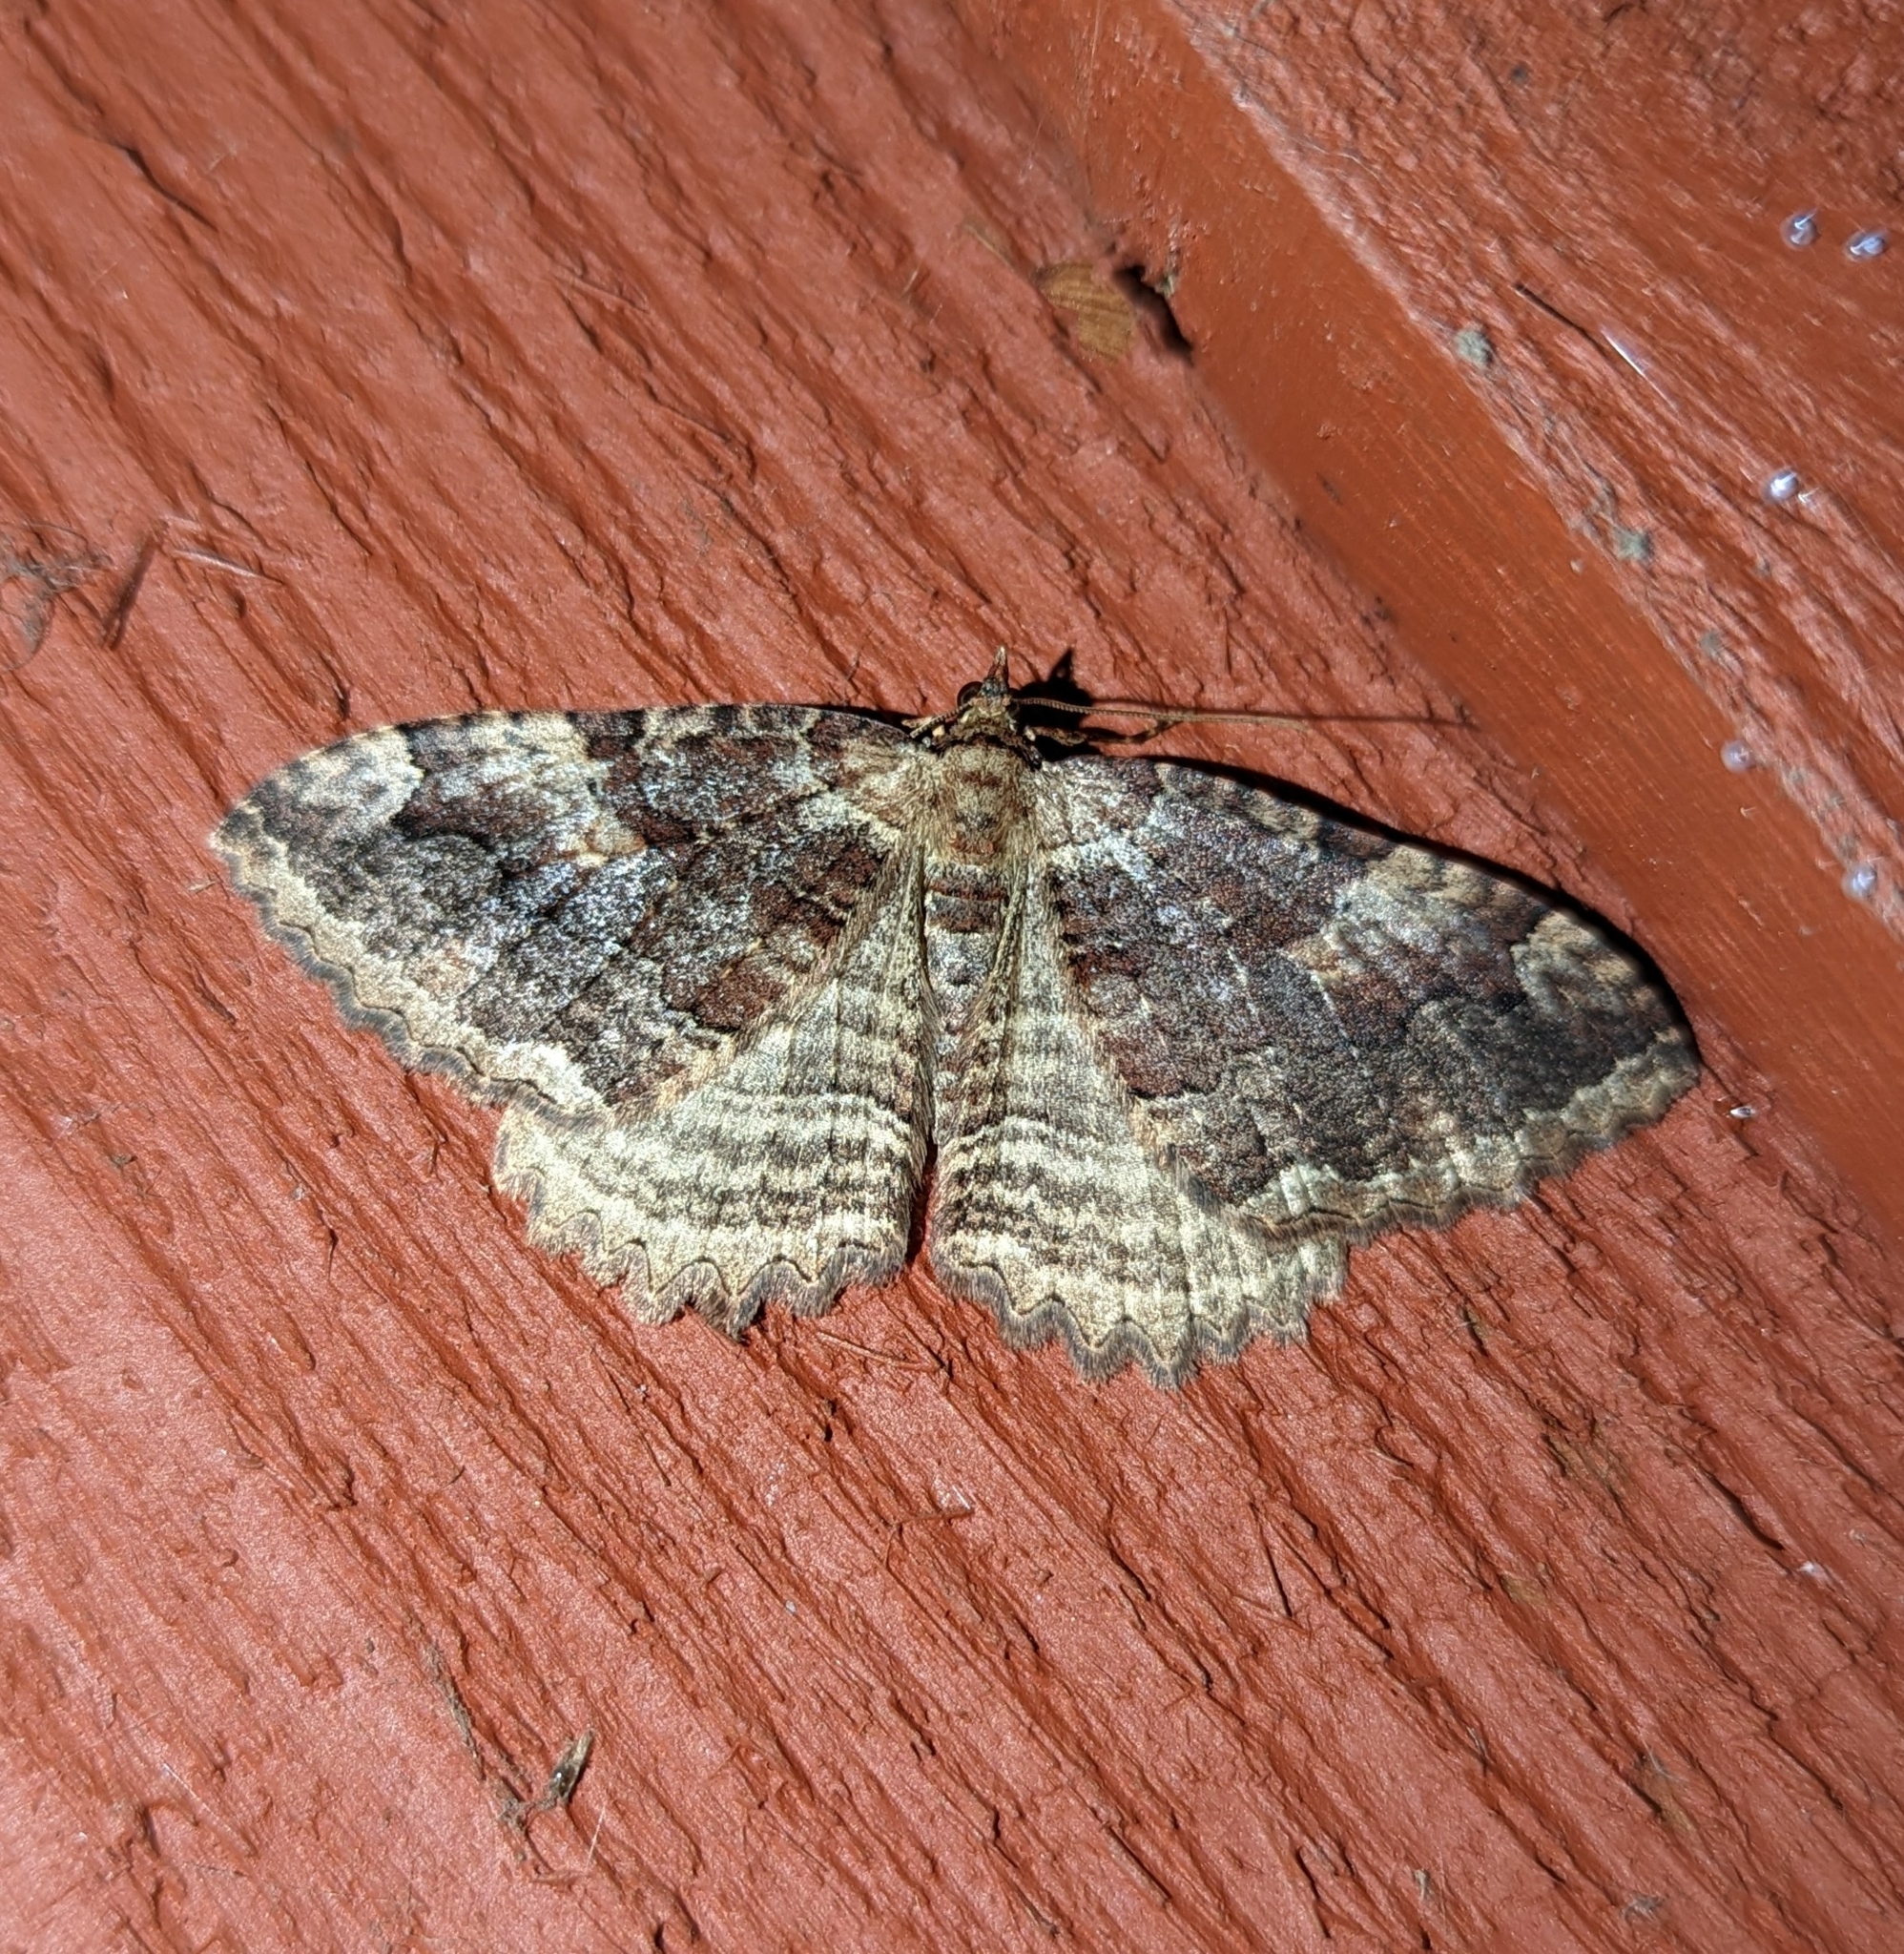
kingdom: Animalia
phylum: Arthropoda
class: Insecta
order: Lepidoptera
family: Geometridae
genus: Triphosa
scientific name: Triphosa haesitata
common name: Tissue moth
